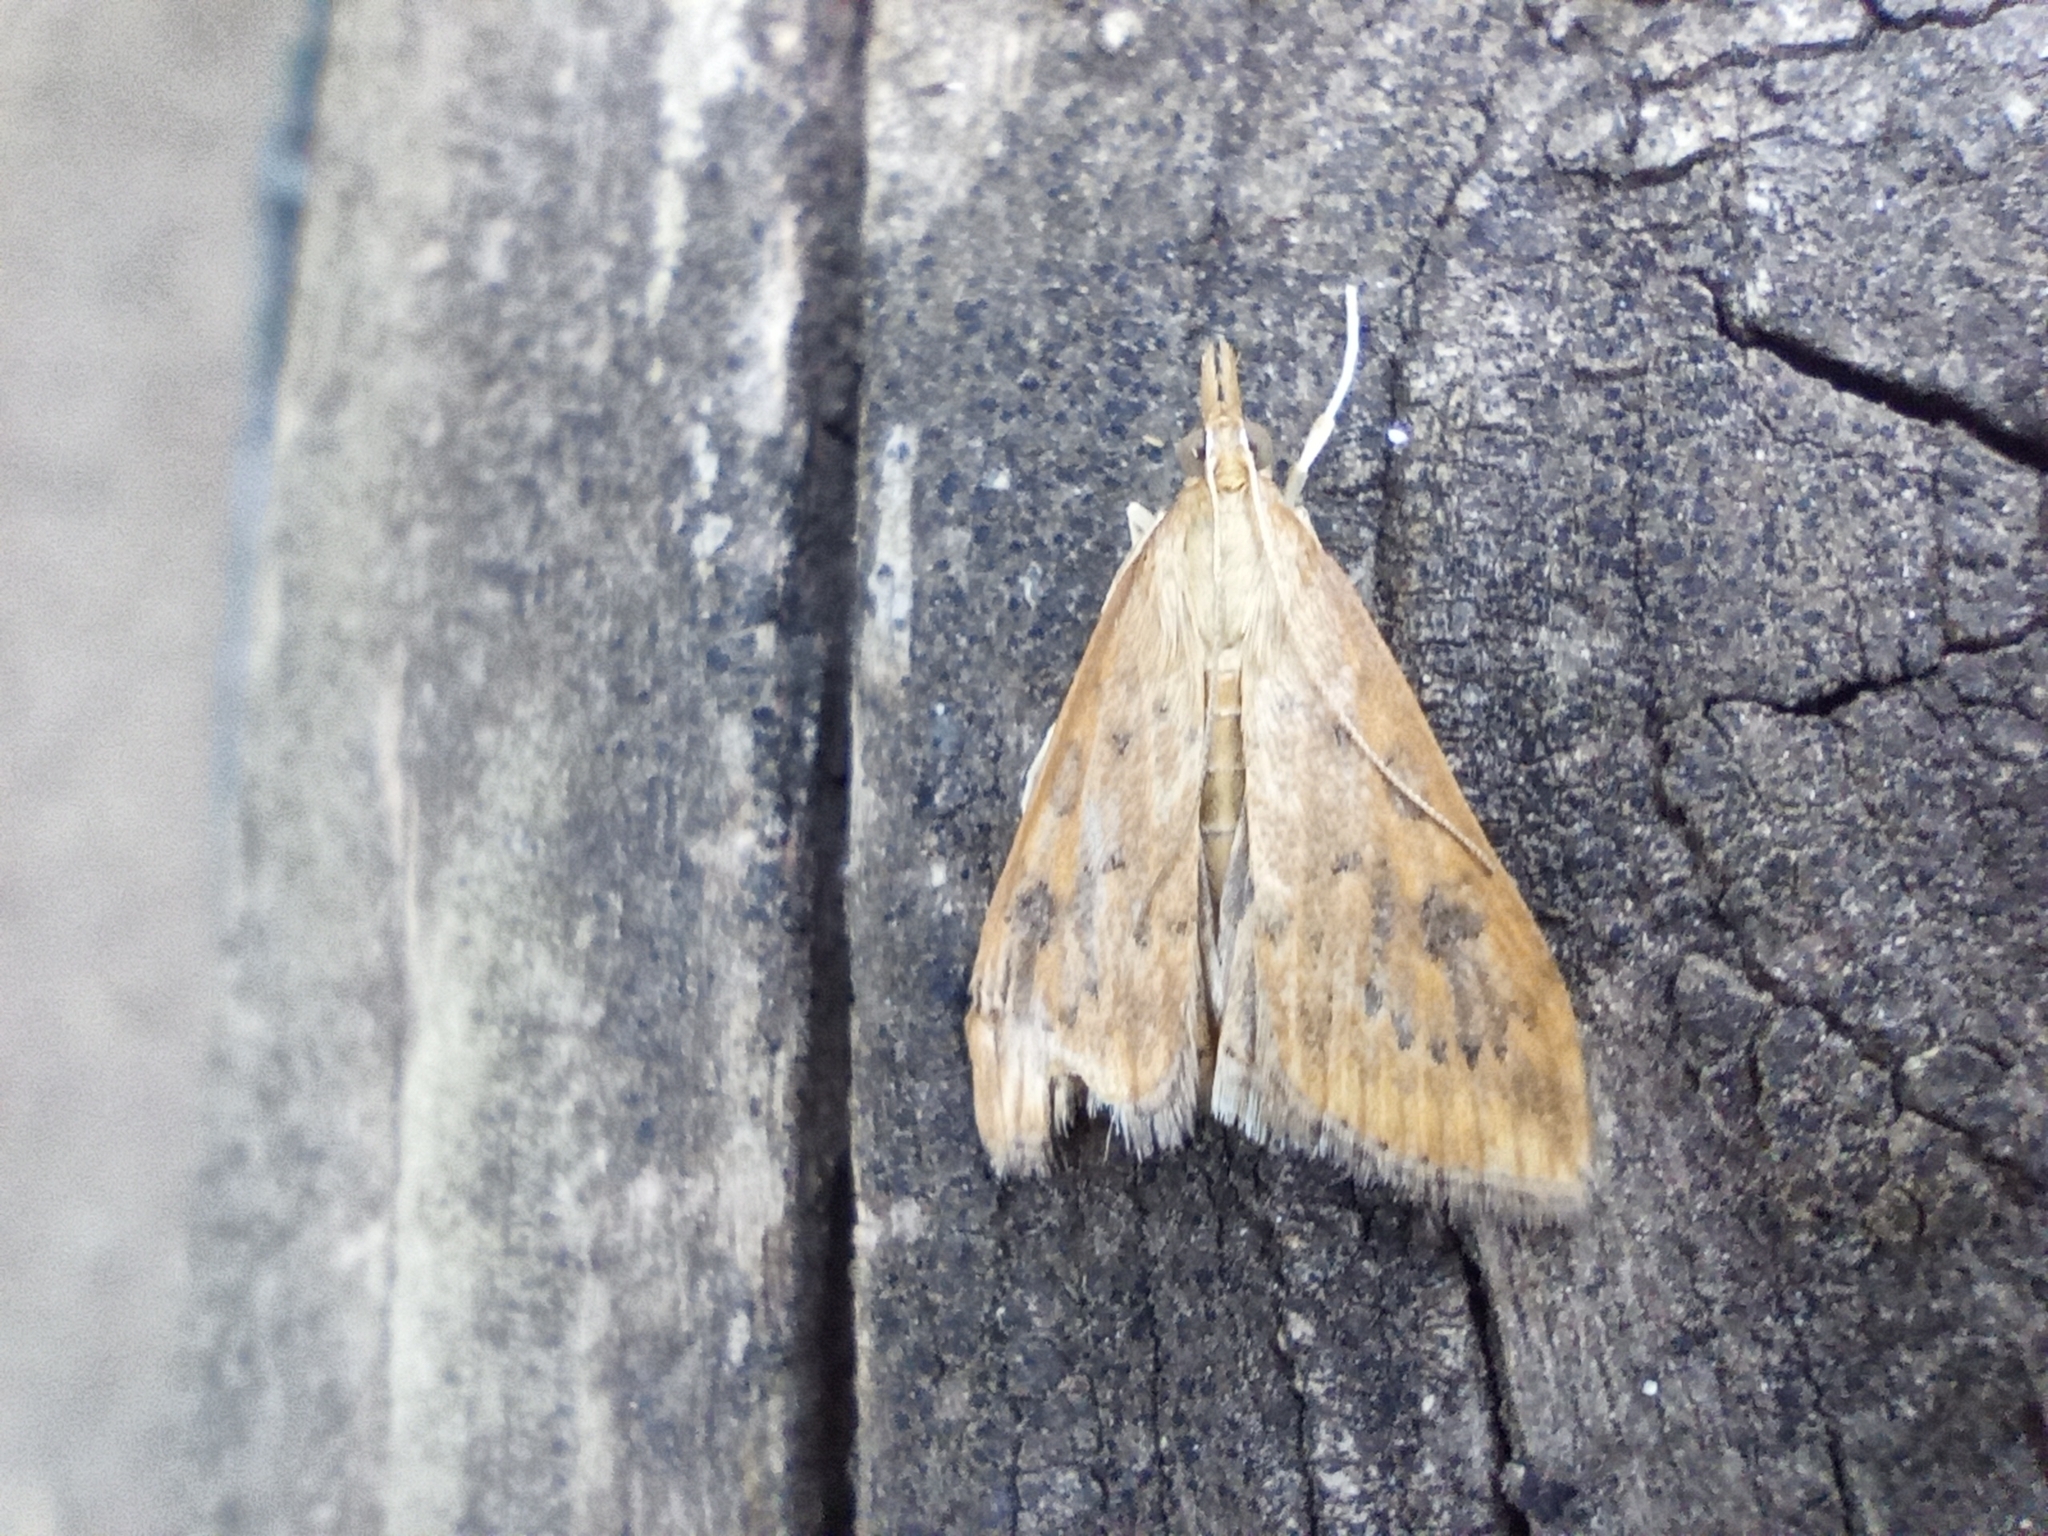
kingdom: Animalia
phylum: Arthropoda
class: Insecta
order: Lepidoptera
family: Crambidae
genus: Udea
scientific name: Udea ferrugalis
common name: Rusty dot
